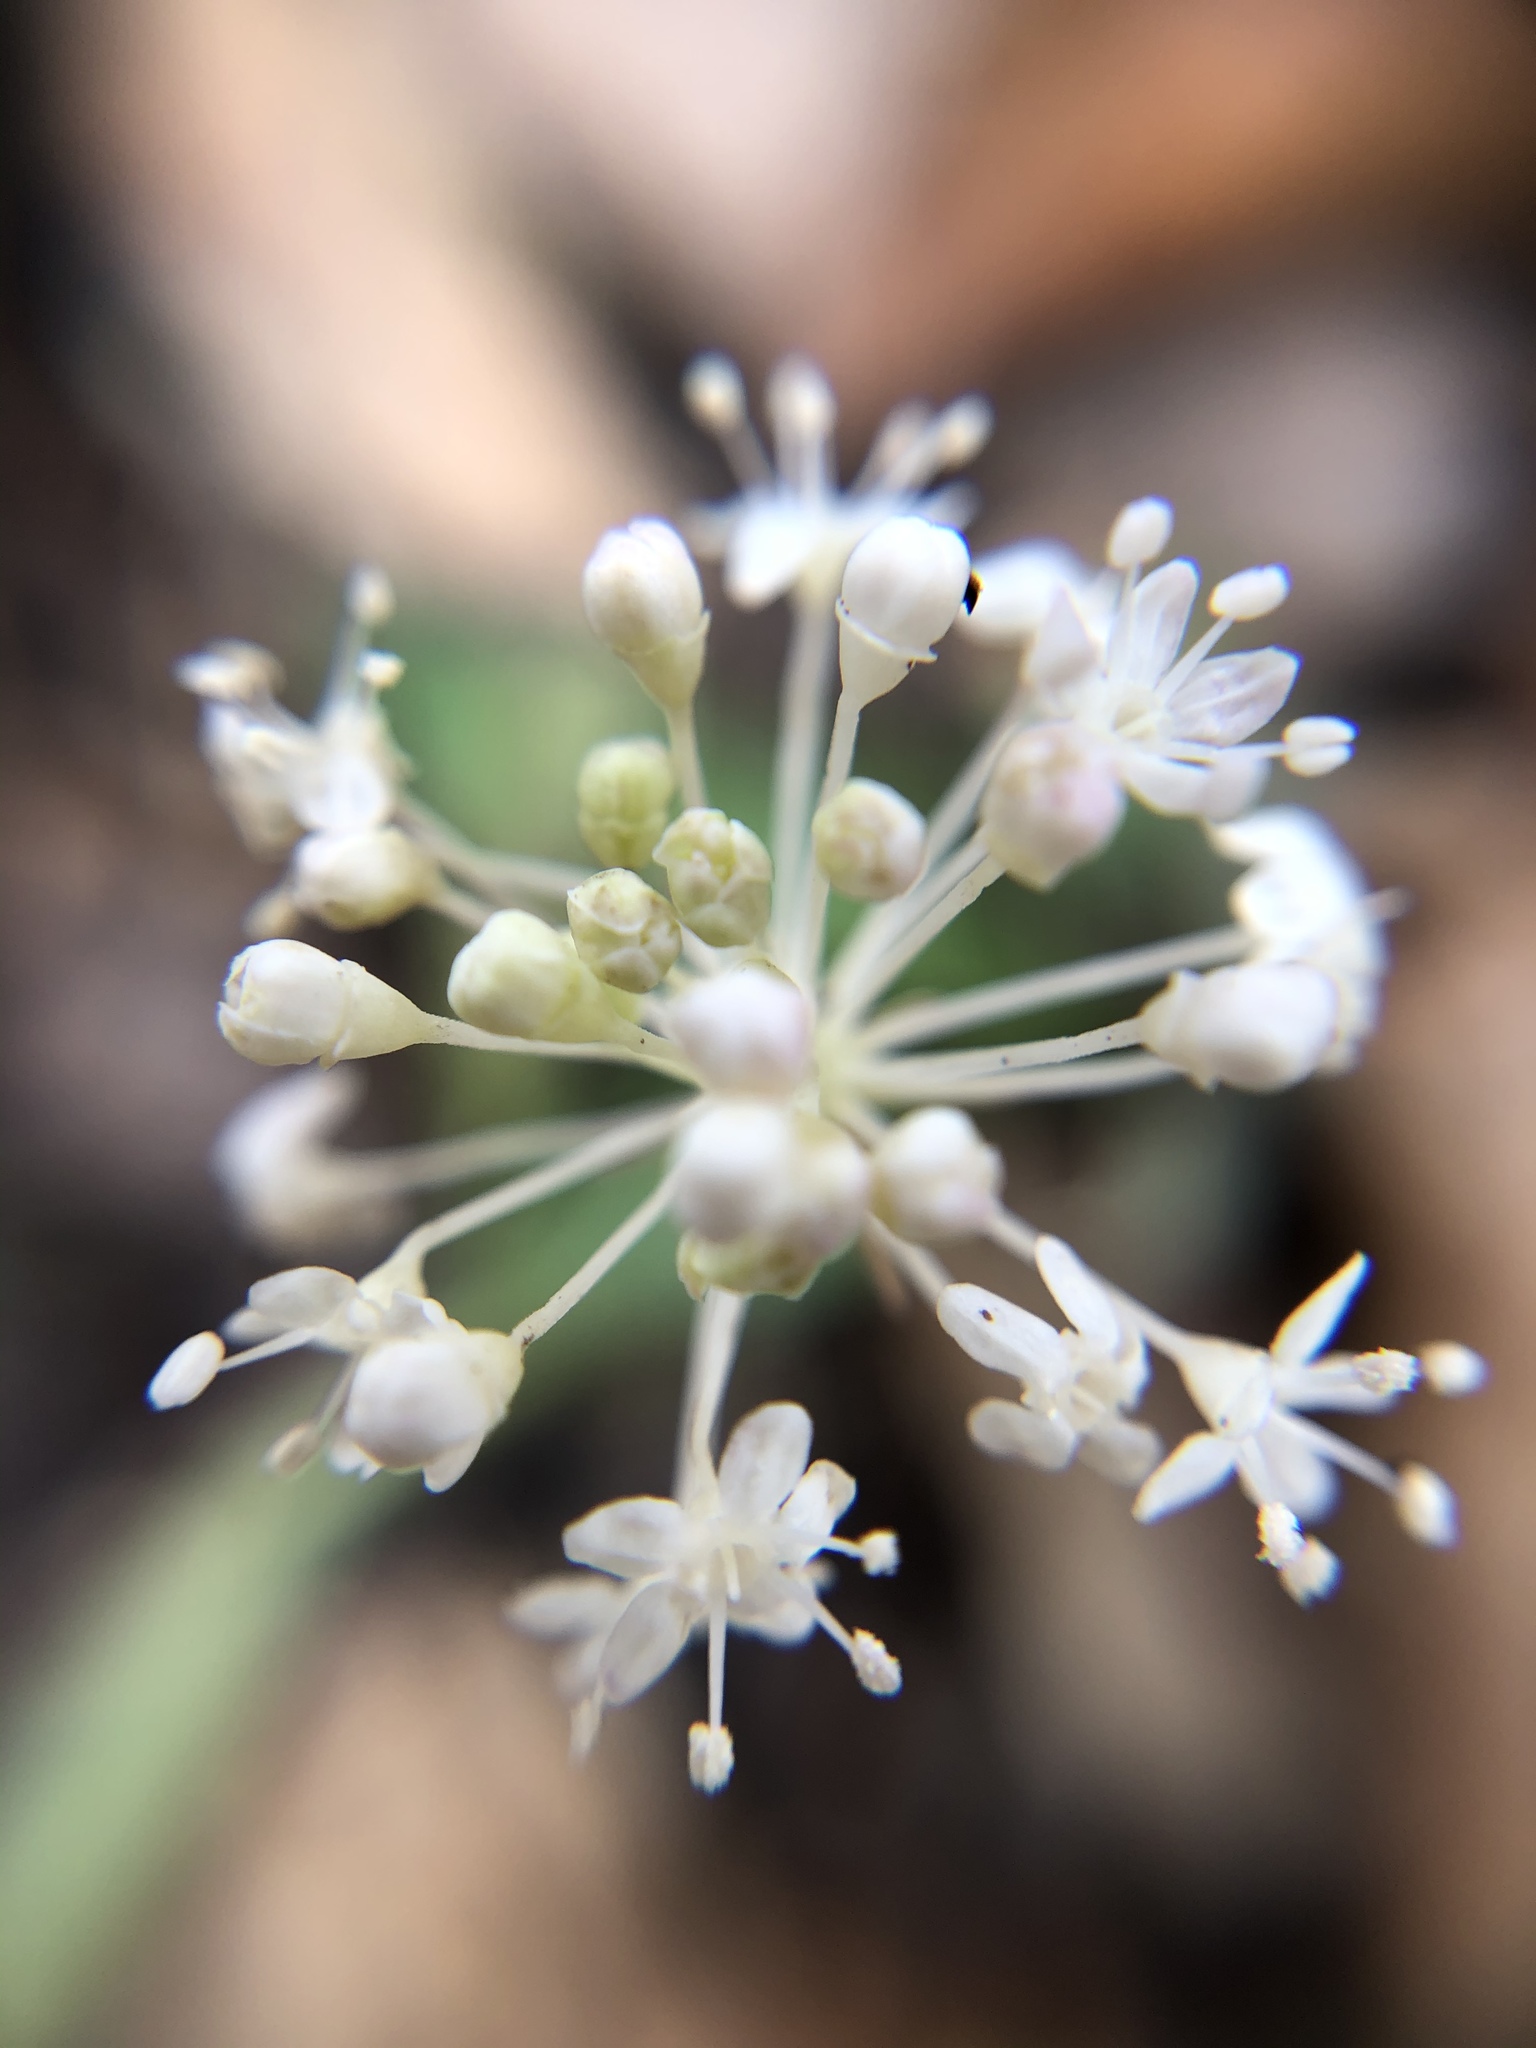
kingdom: Plantae
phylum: Tracheophyta
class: Magnoliopsida
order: Apiales
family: Araliaceae
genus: Panax
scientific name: Panax trifolius
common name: Dwarf ginseng
